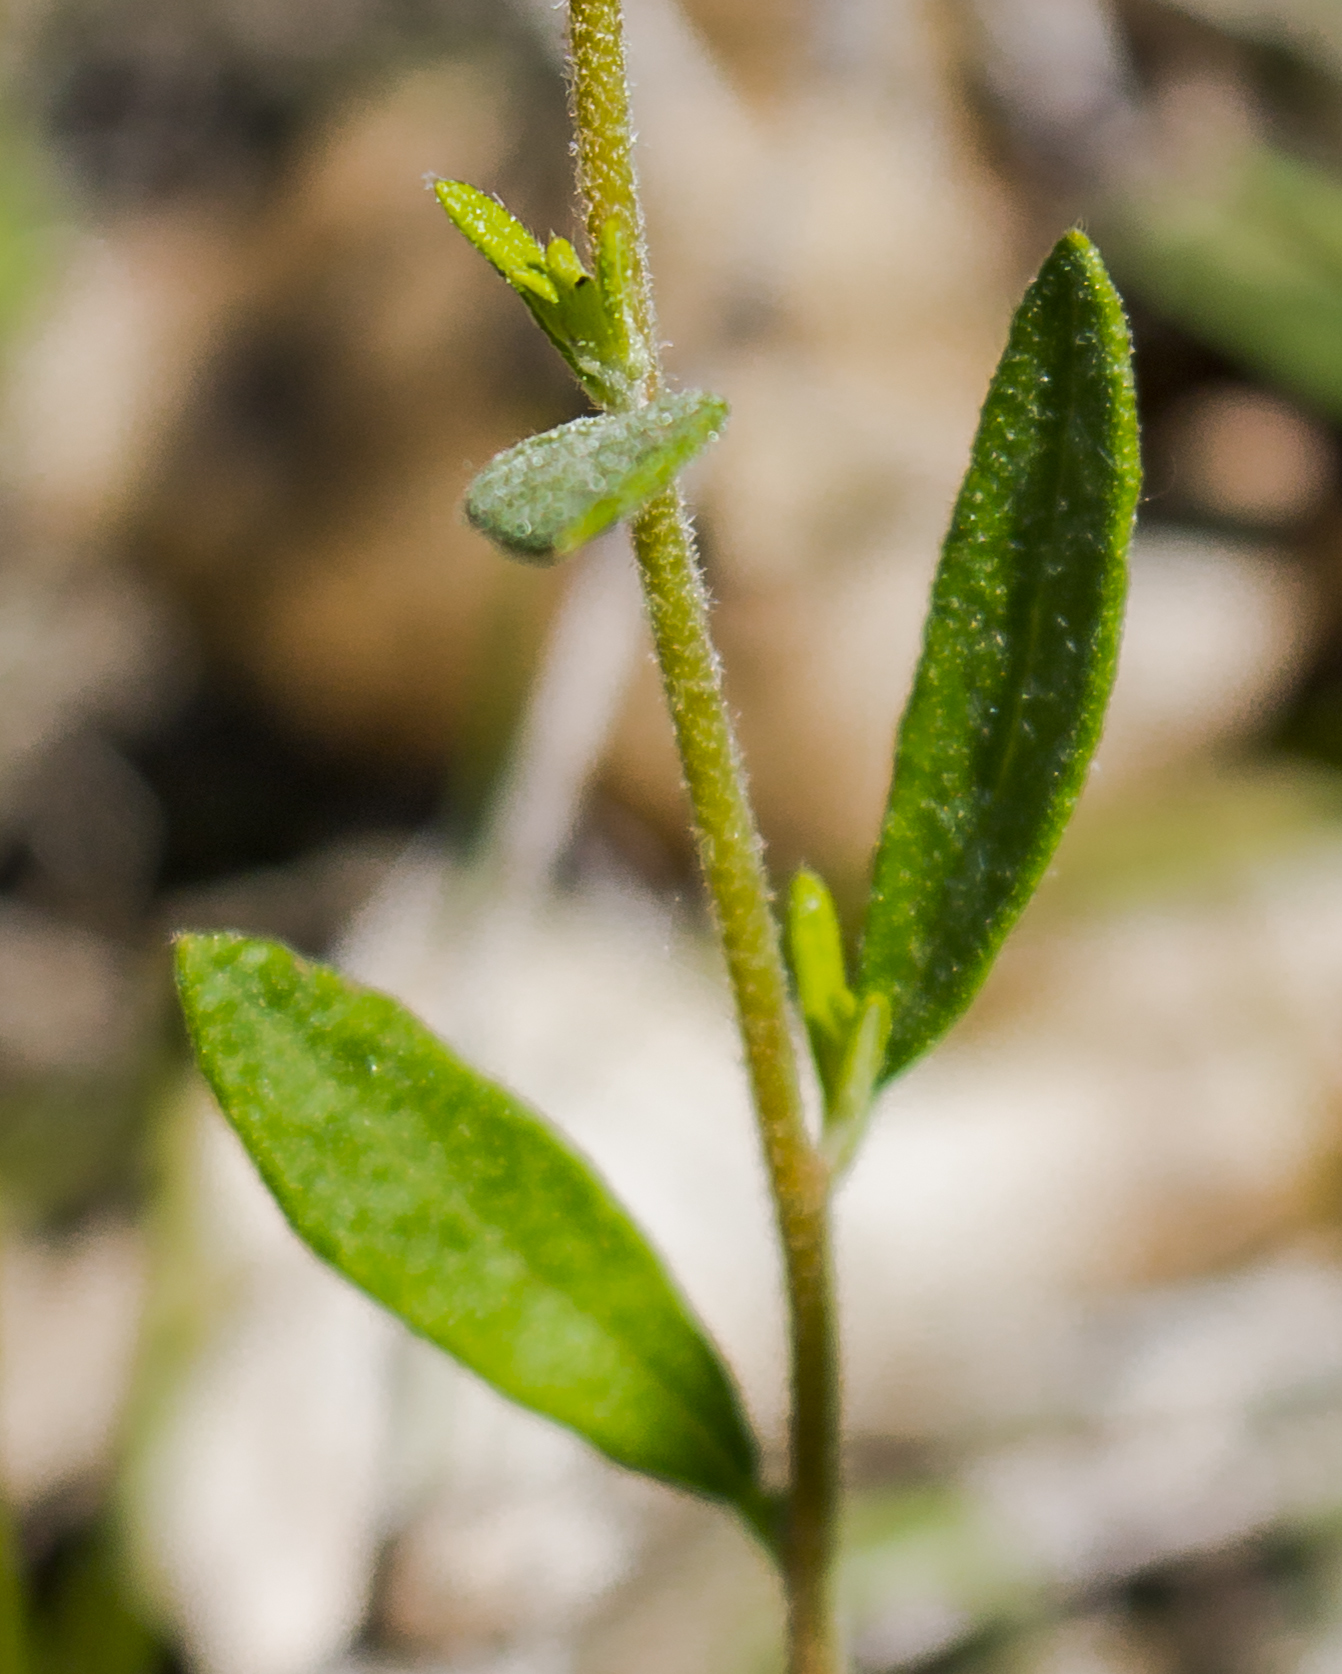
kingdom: Plantae
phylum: Tracheophyta
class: Magnoliopsida
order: Malvales
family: Cistaceae
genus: Crocanthemum
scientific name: Crocanthemum canadense
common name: Canada frostweed
